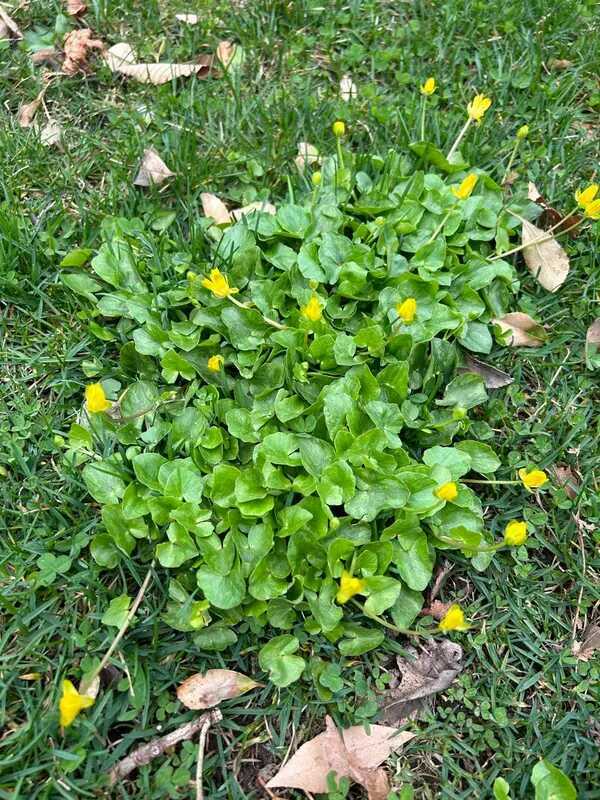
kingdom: Plantae
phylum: Tracheophyta
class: Magnoliopsida
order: Ranunculales
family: Ranunculaceae
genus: Ficaria
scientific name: Ficaria verna
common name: Lesser celandine
